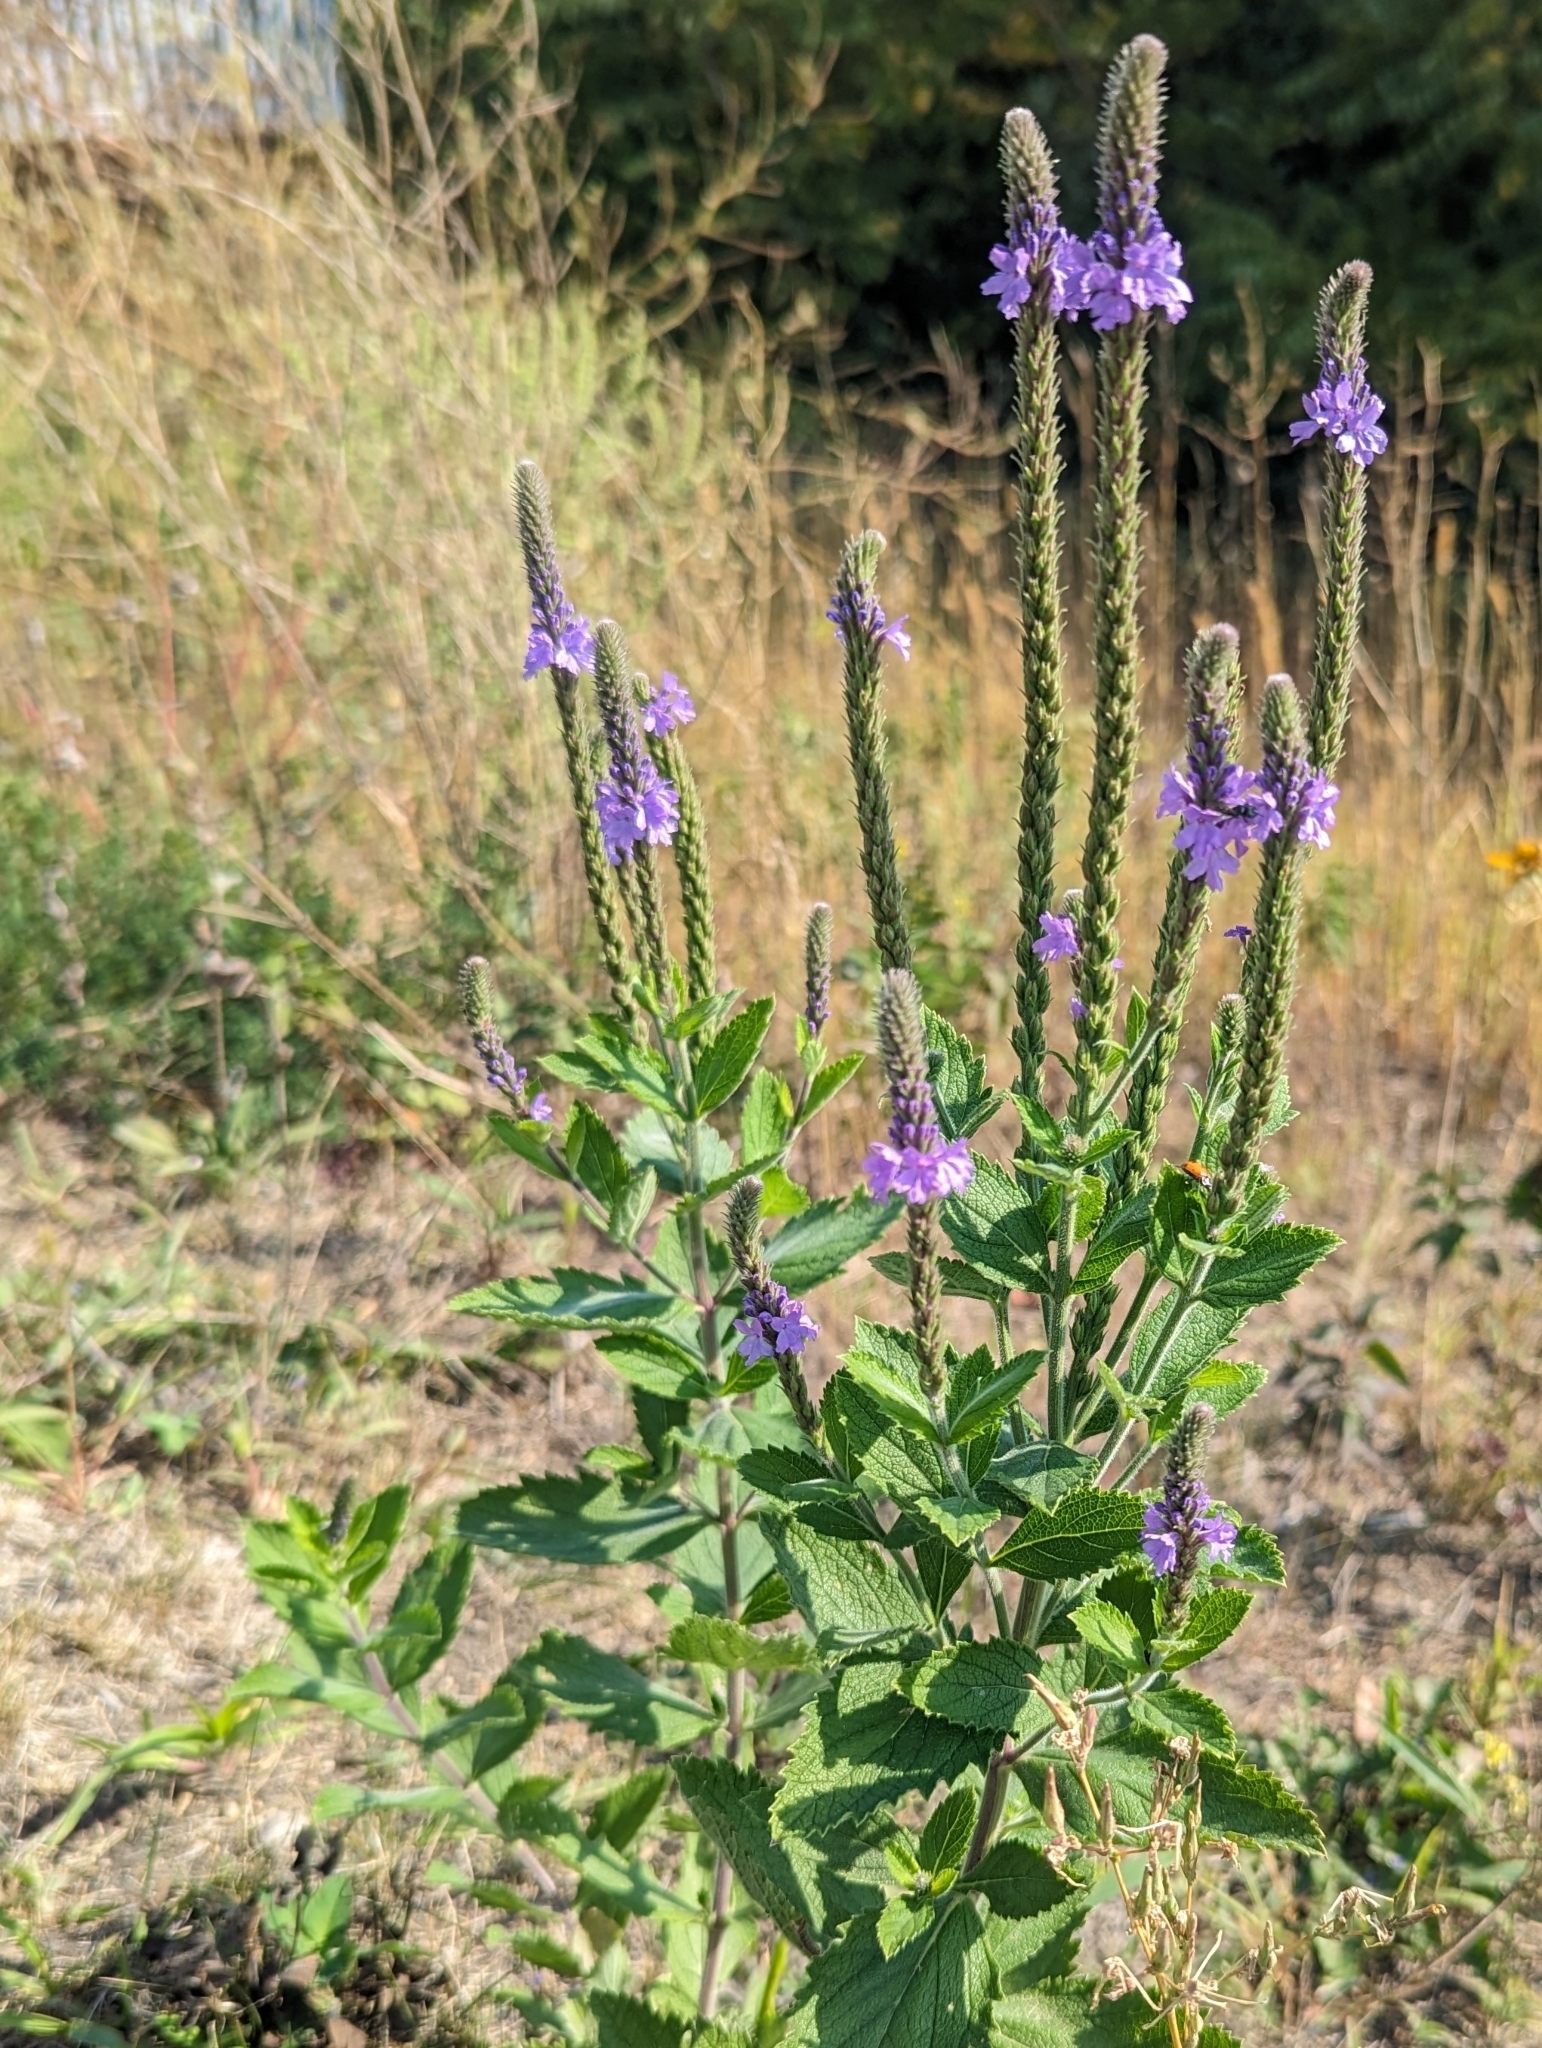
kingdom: Plantae
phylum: Tracheophyta
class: Magnoliopsida
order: Lamiales
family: Verbenaceae
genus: Verbena
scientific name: Verbena stricta
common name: Hoary vervain
